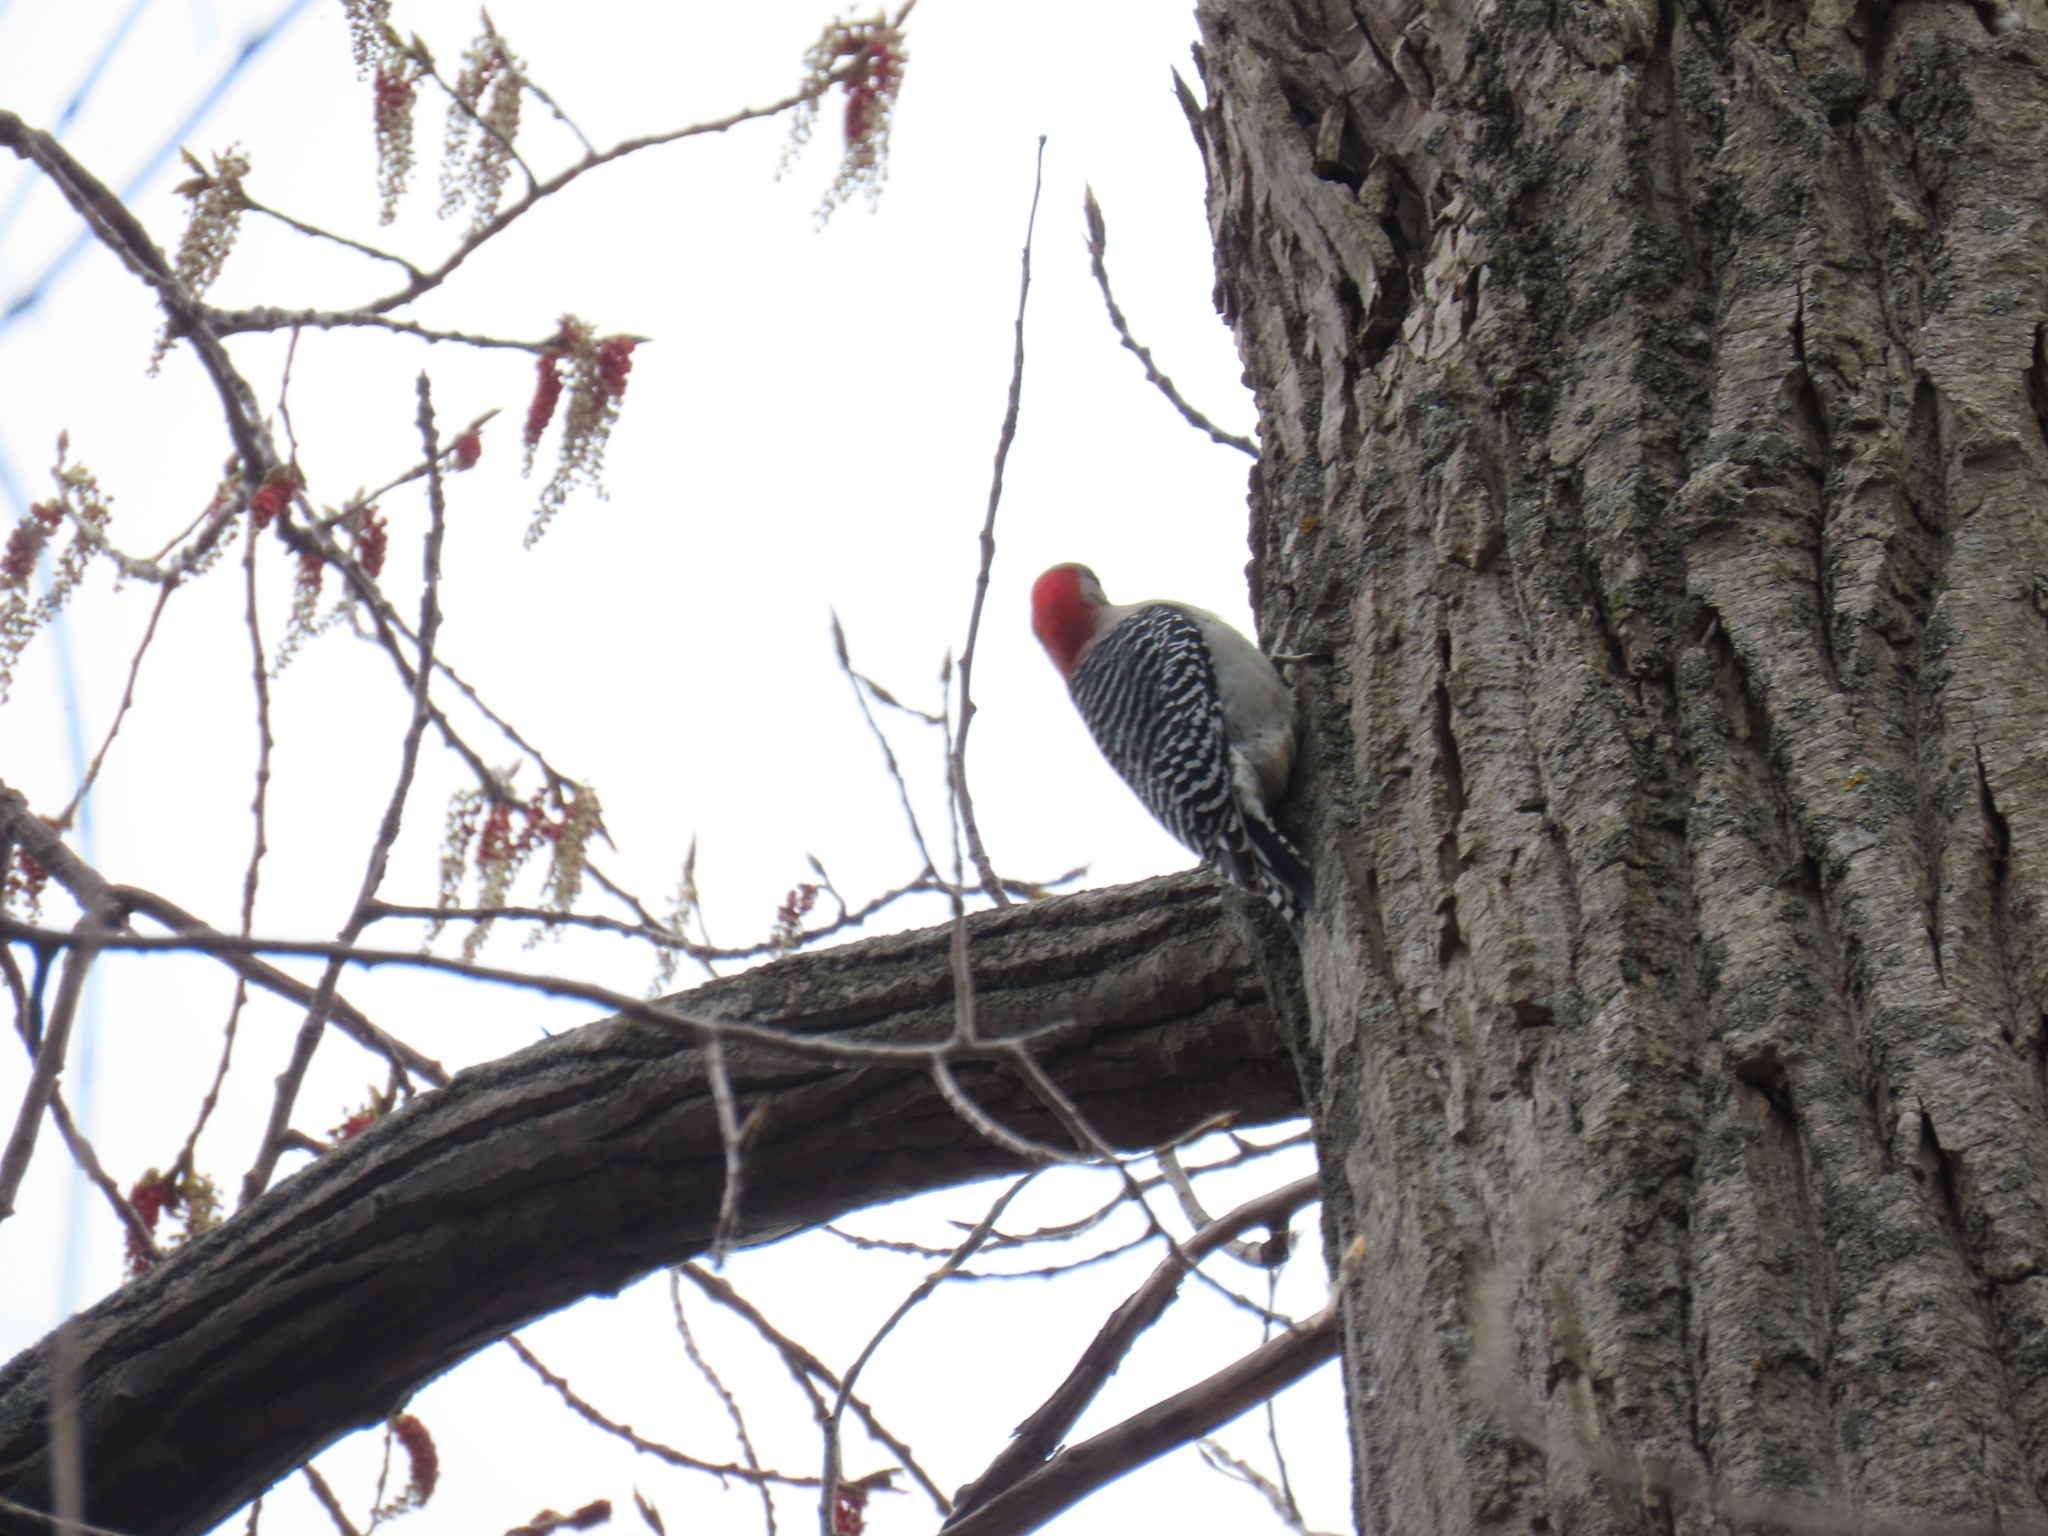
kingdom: Animalia
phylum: Chordata
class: Aves
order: Piciformes
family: Picidae
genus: Melanerpes
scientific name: Melanerpes carolinus
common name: Red-bellied woodpecker
